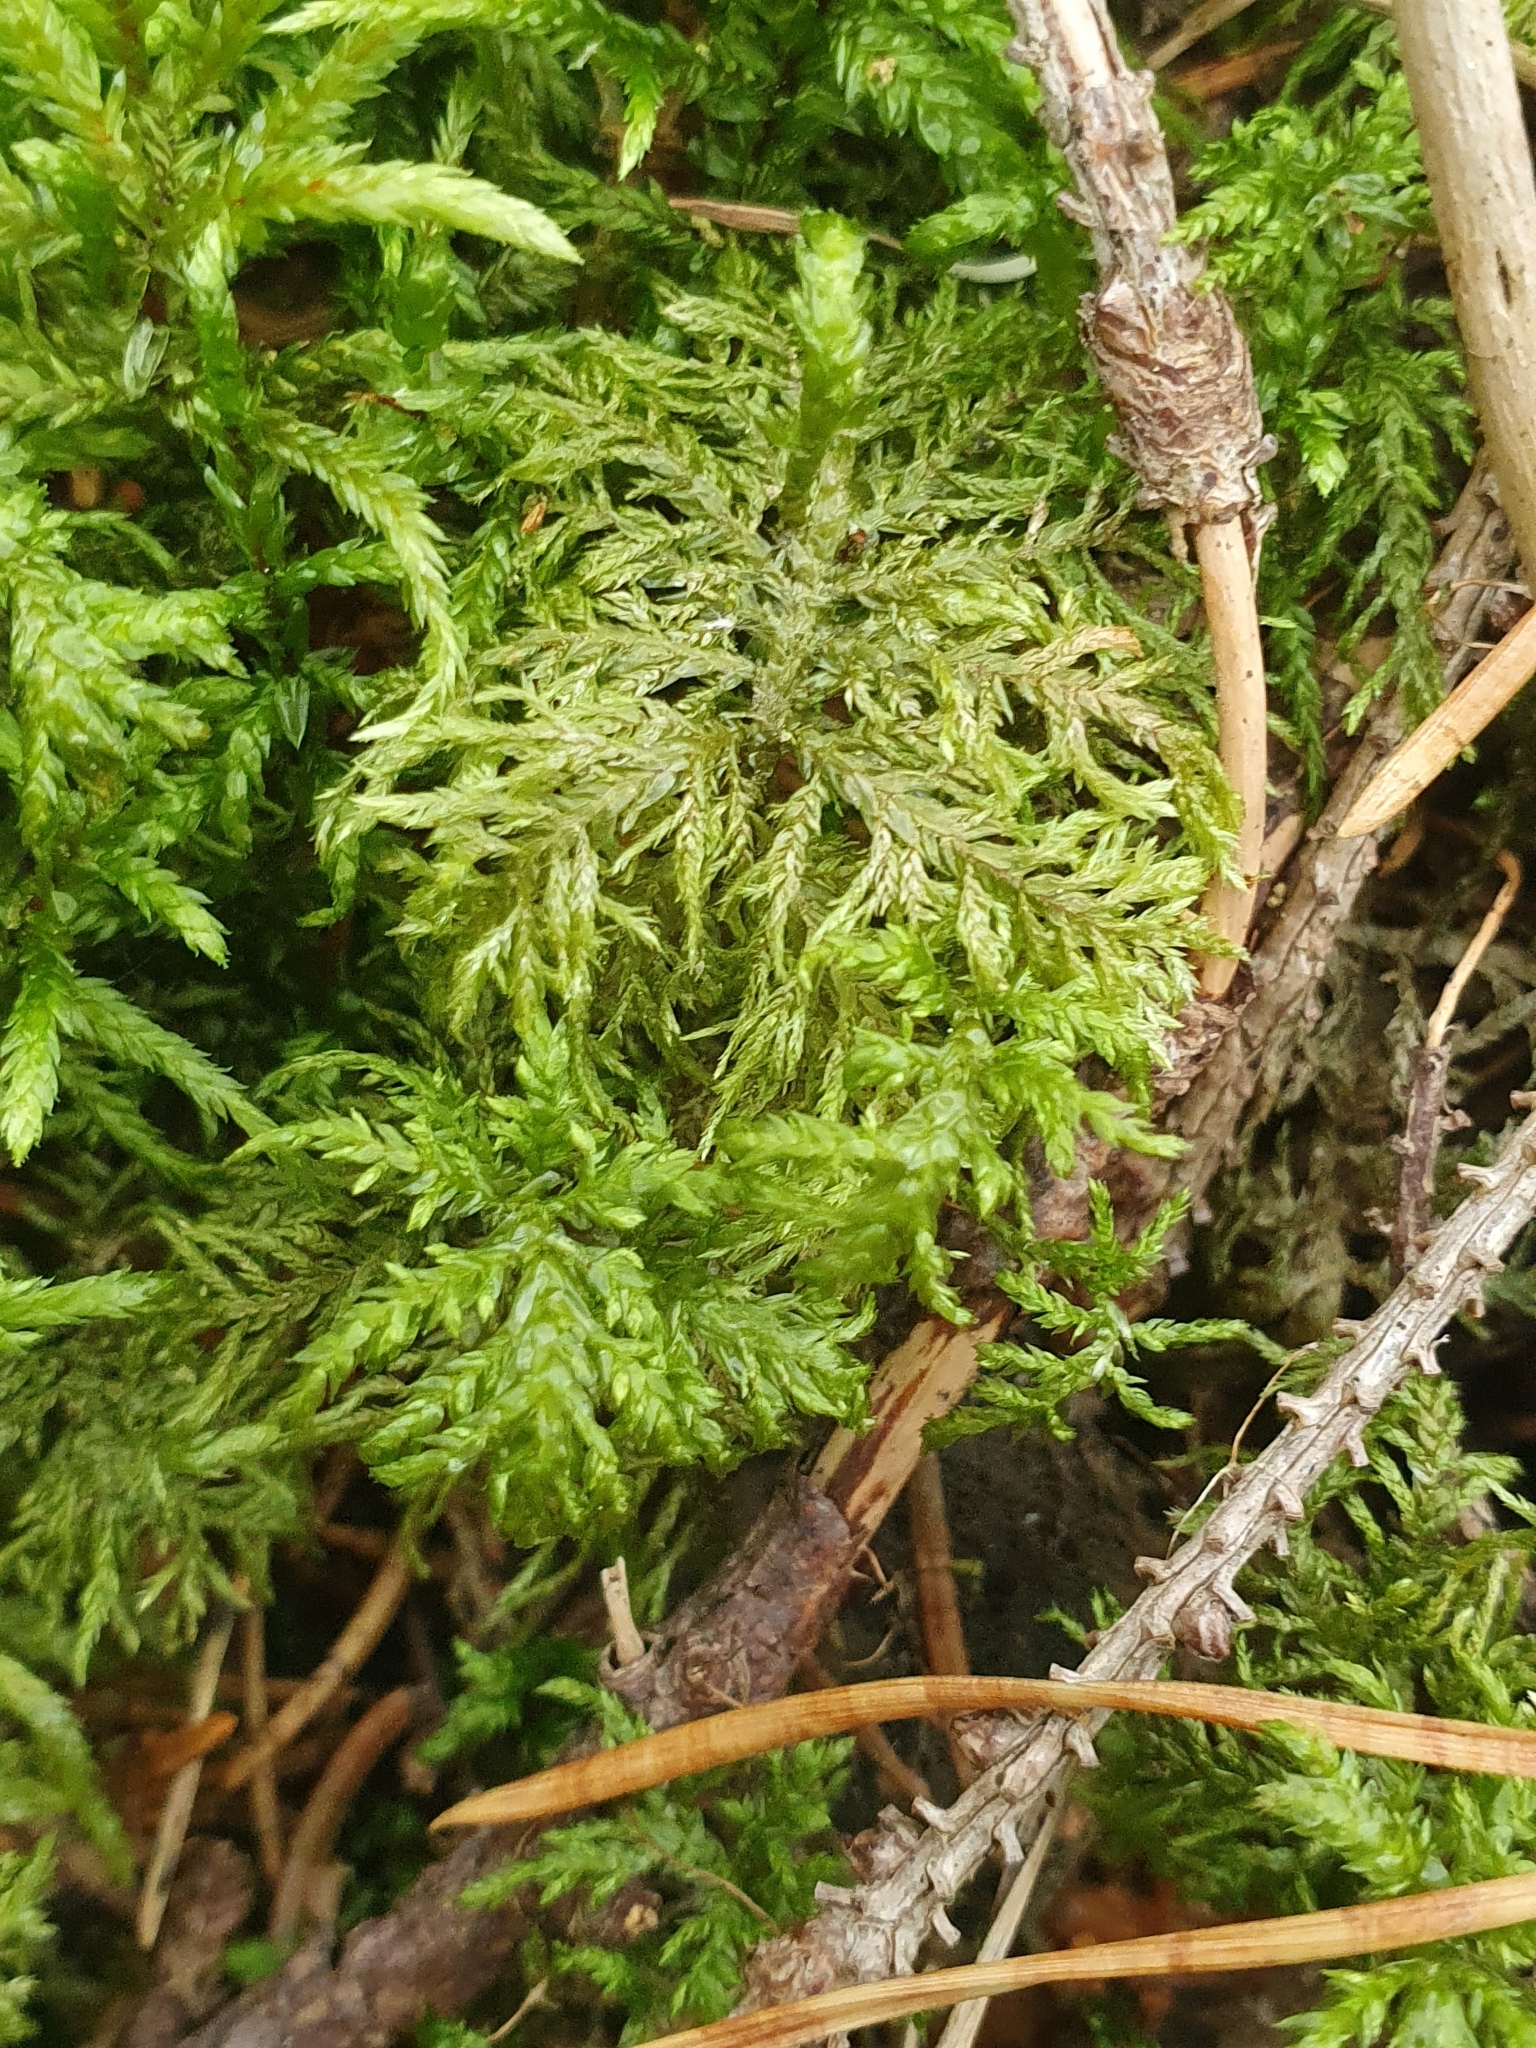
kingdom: Plantae
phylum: Bryophyta
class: Bryopsida
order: Hypnales
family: Hylocomiaceae
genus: Hylocomium
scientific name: Hylocomium splendens
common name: Stairstep moss
